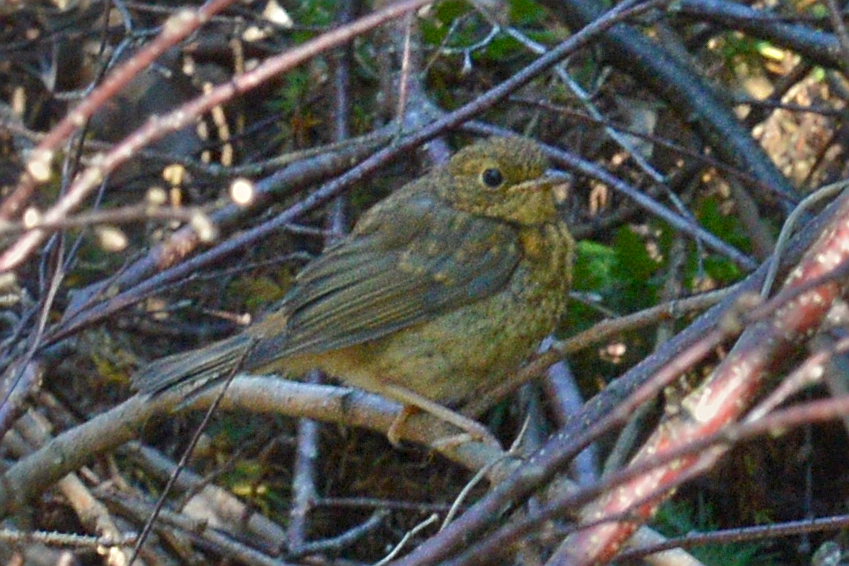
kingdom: Animalia
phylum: Chordata
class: Aves
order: Passeriformes
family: Muscicapidae
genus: Erithacus
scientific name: Erithacus rubecula
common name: European robin
